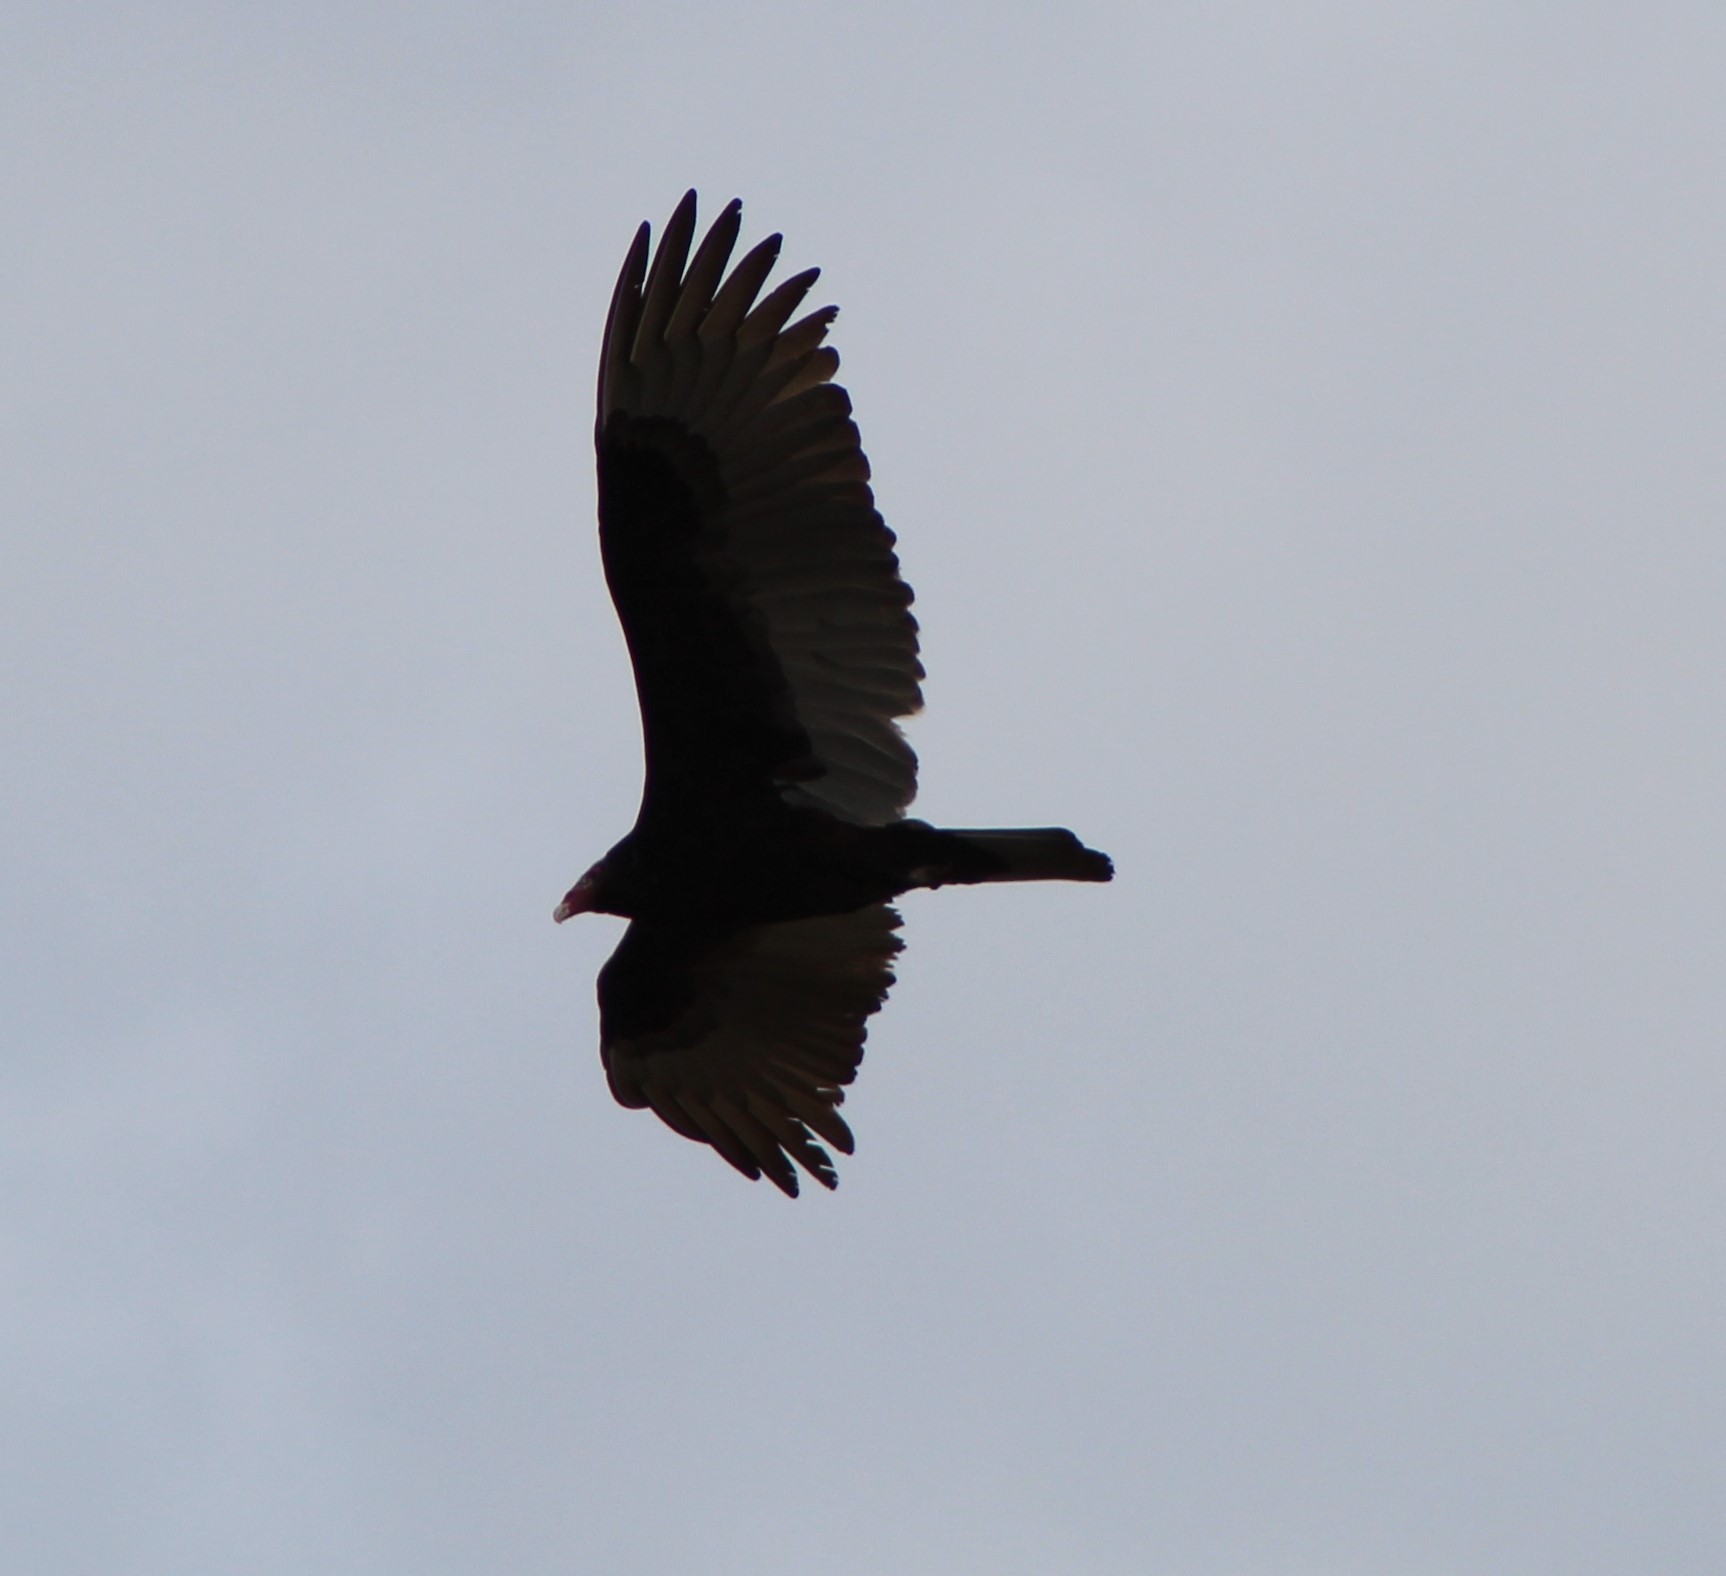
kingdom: Animalia
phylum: Chordata
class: Aves
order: Accipitriformes
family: Cathartidae
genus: Cathartes
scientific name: Cathartes aura
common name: Turkey vulture
